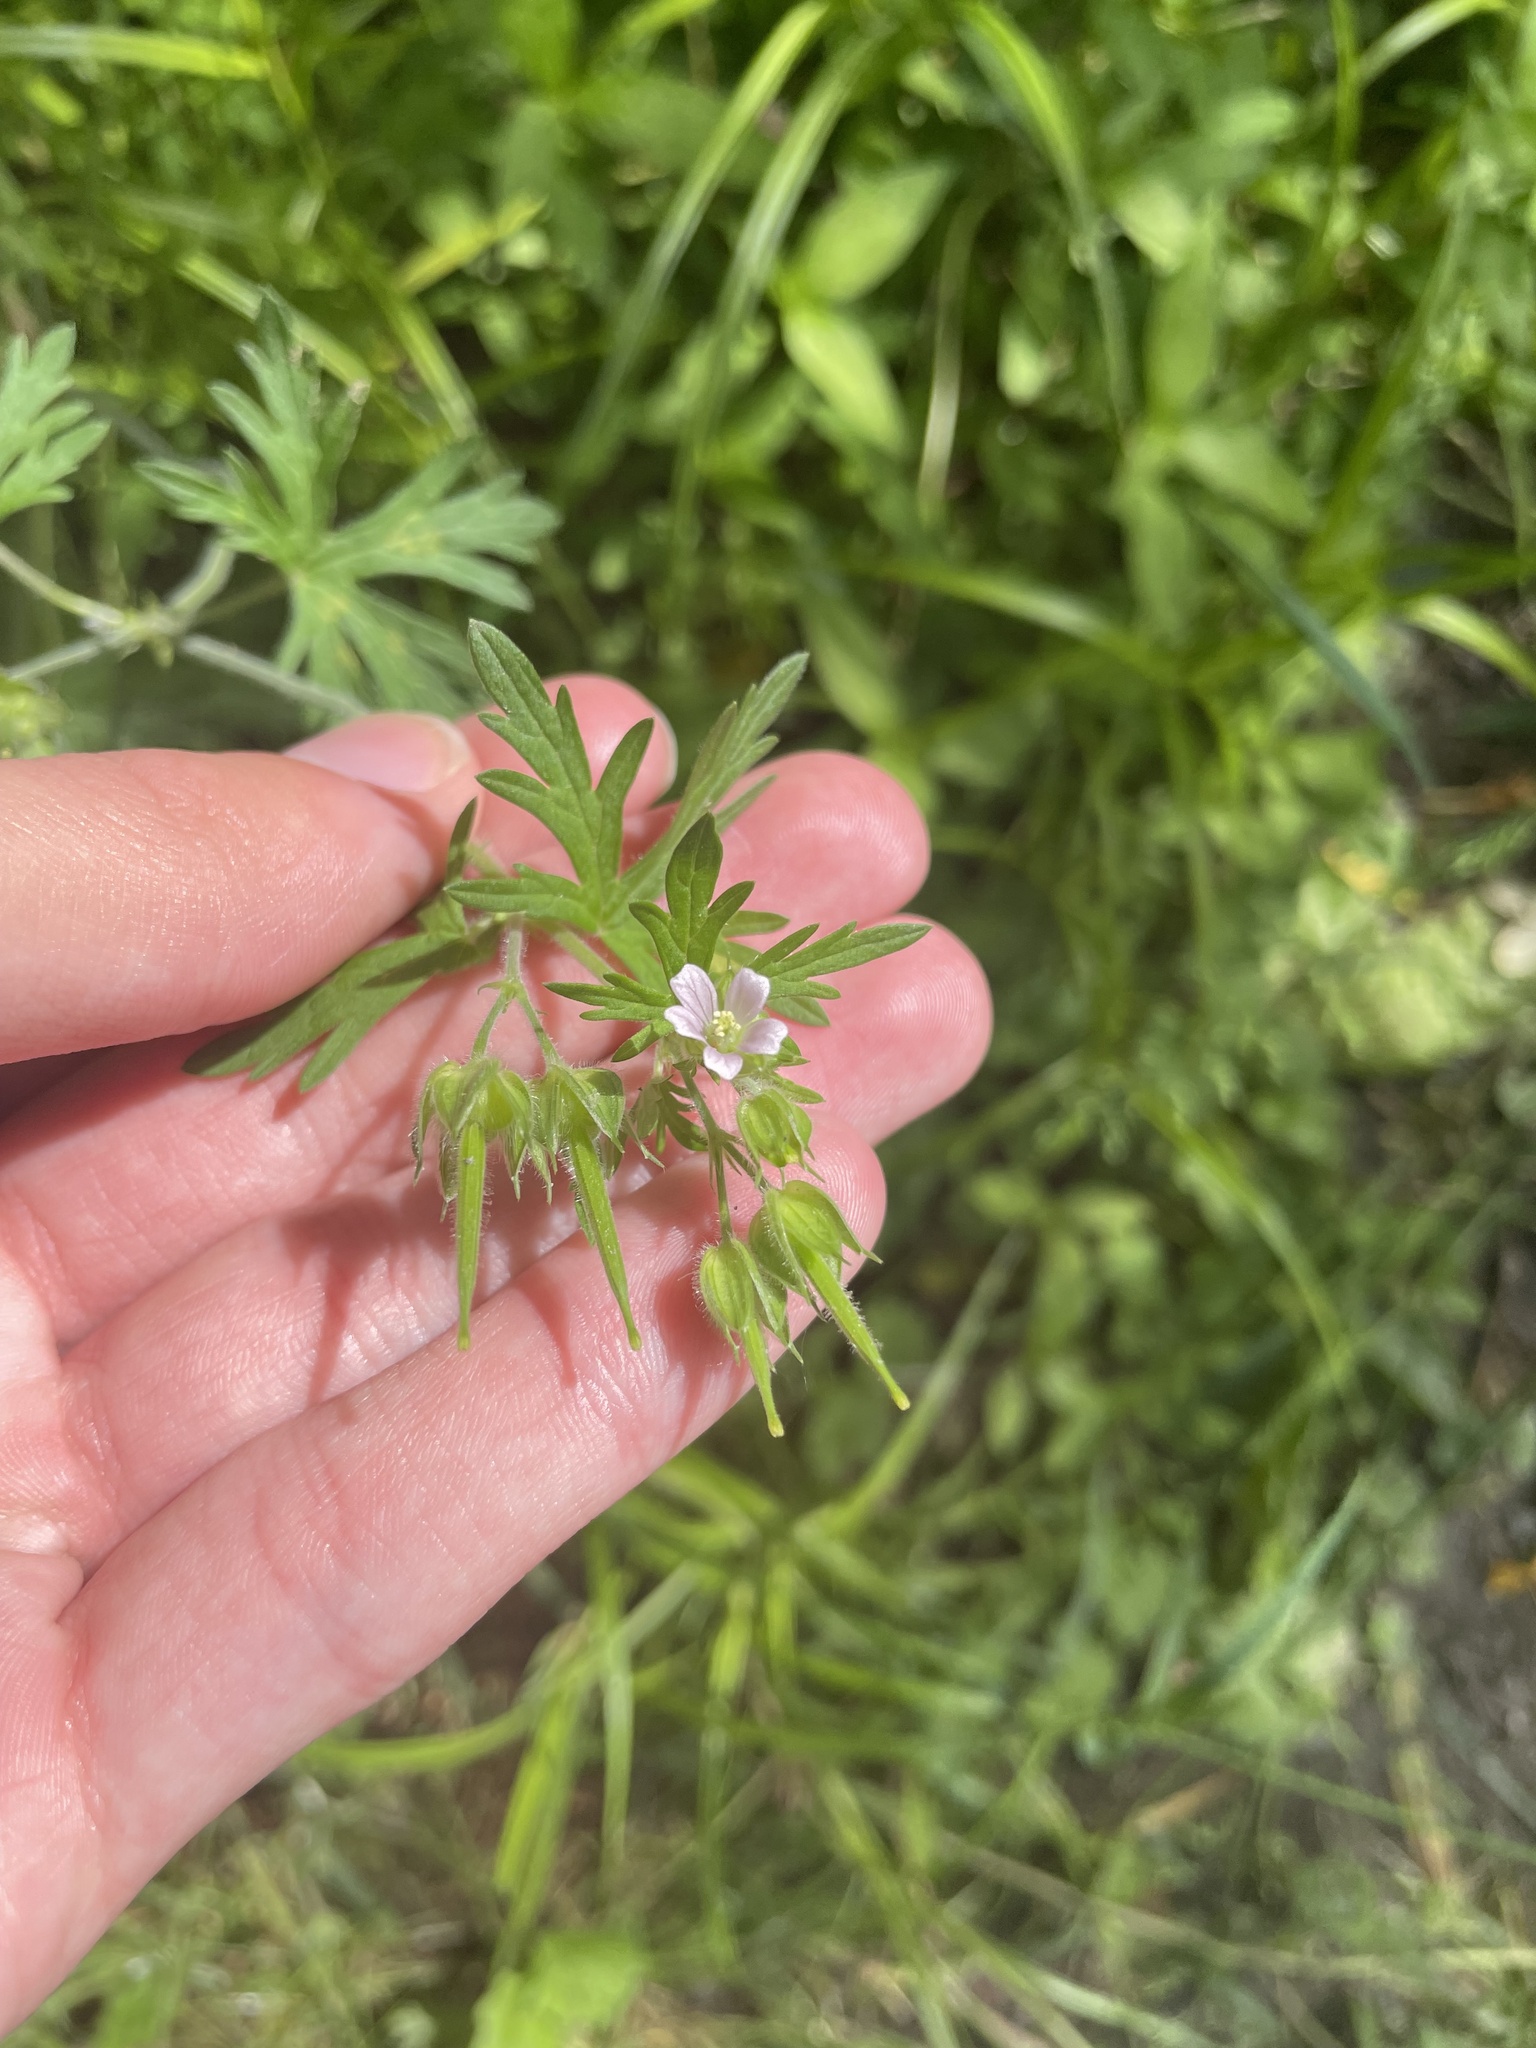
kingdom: Plantae
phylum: Tracheophyta
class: Magnoliopsida
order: Geraniales
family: Geraniaceae
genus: Geranium
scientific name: Geranium carolinianum
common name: Carolina crane's-bill
